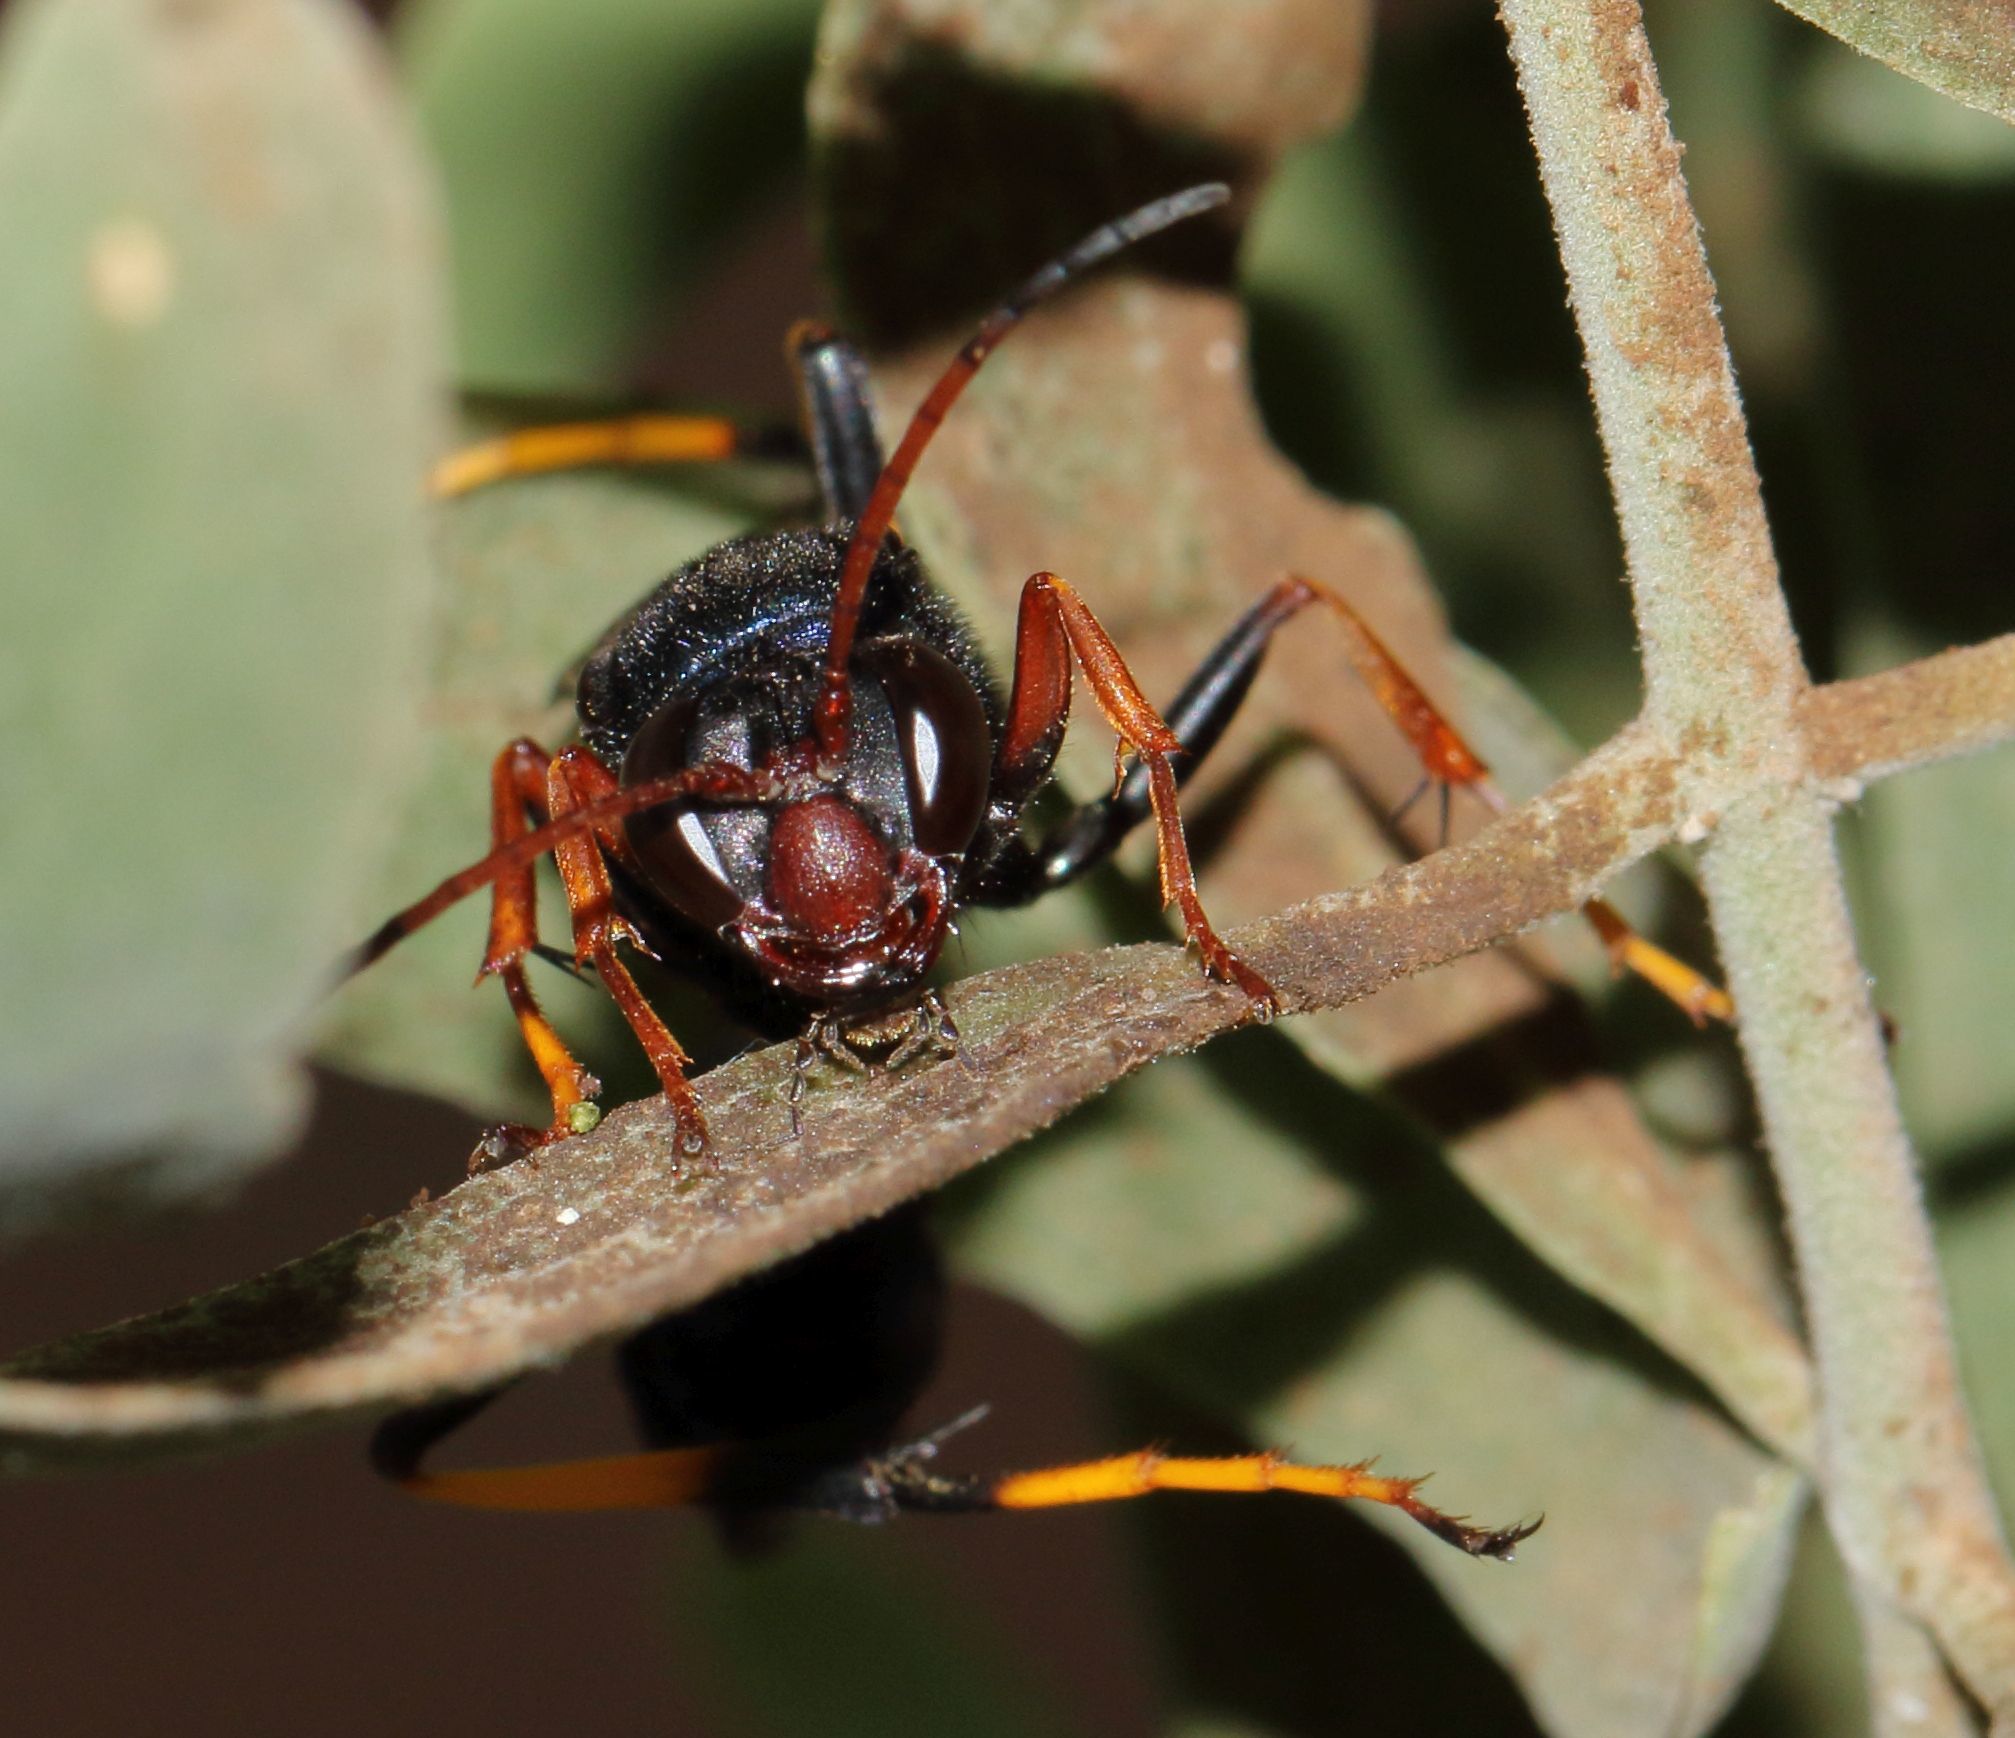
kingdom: Animalia
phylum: Arthropoda
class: Insecta
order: Hymenoptera
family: Sphecidae
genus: Chalybion
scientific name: Chalybion spinolae
